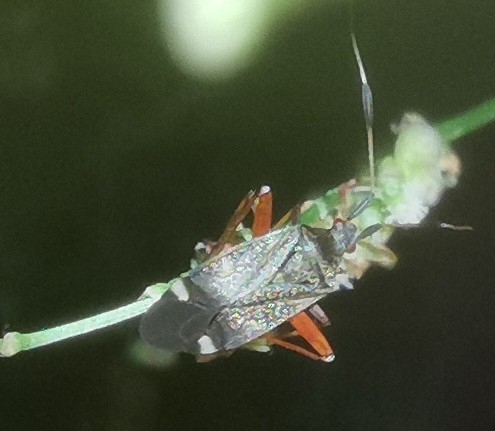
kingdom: Animalia
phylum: Arthropoda
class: Insecta
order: Hemiptera
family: Miridae
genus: Closterotomus
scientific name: Closterotomus biclavatus
